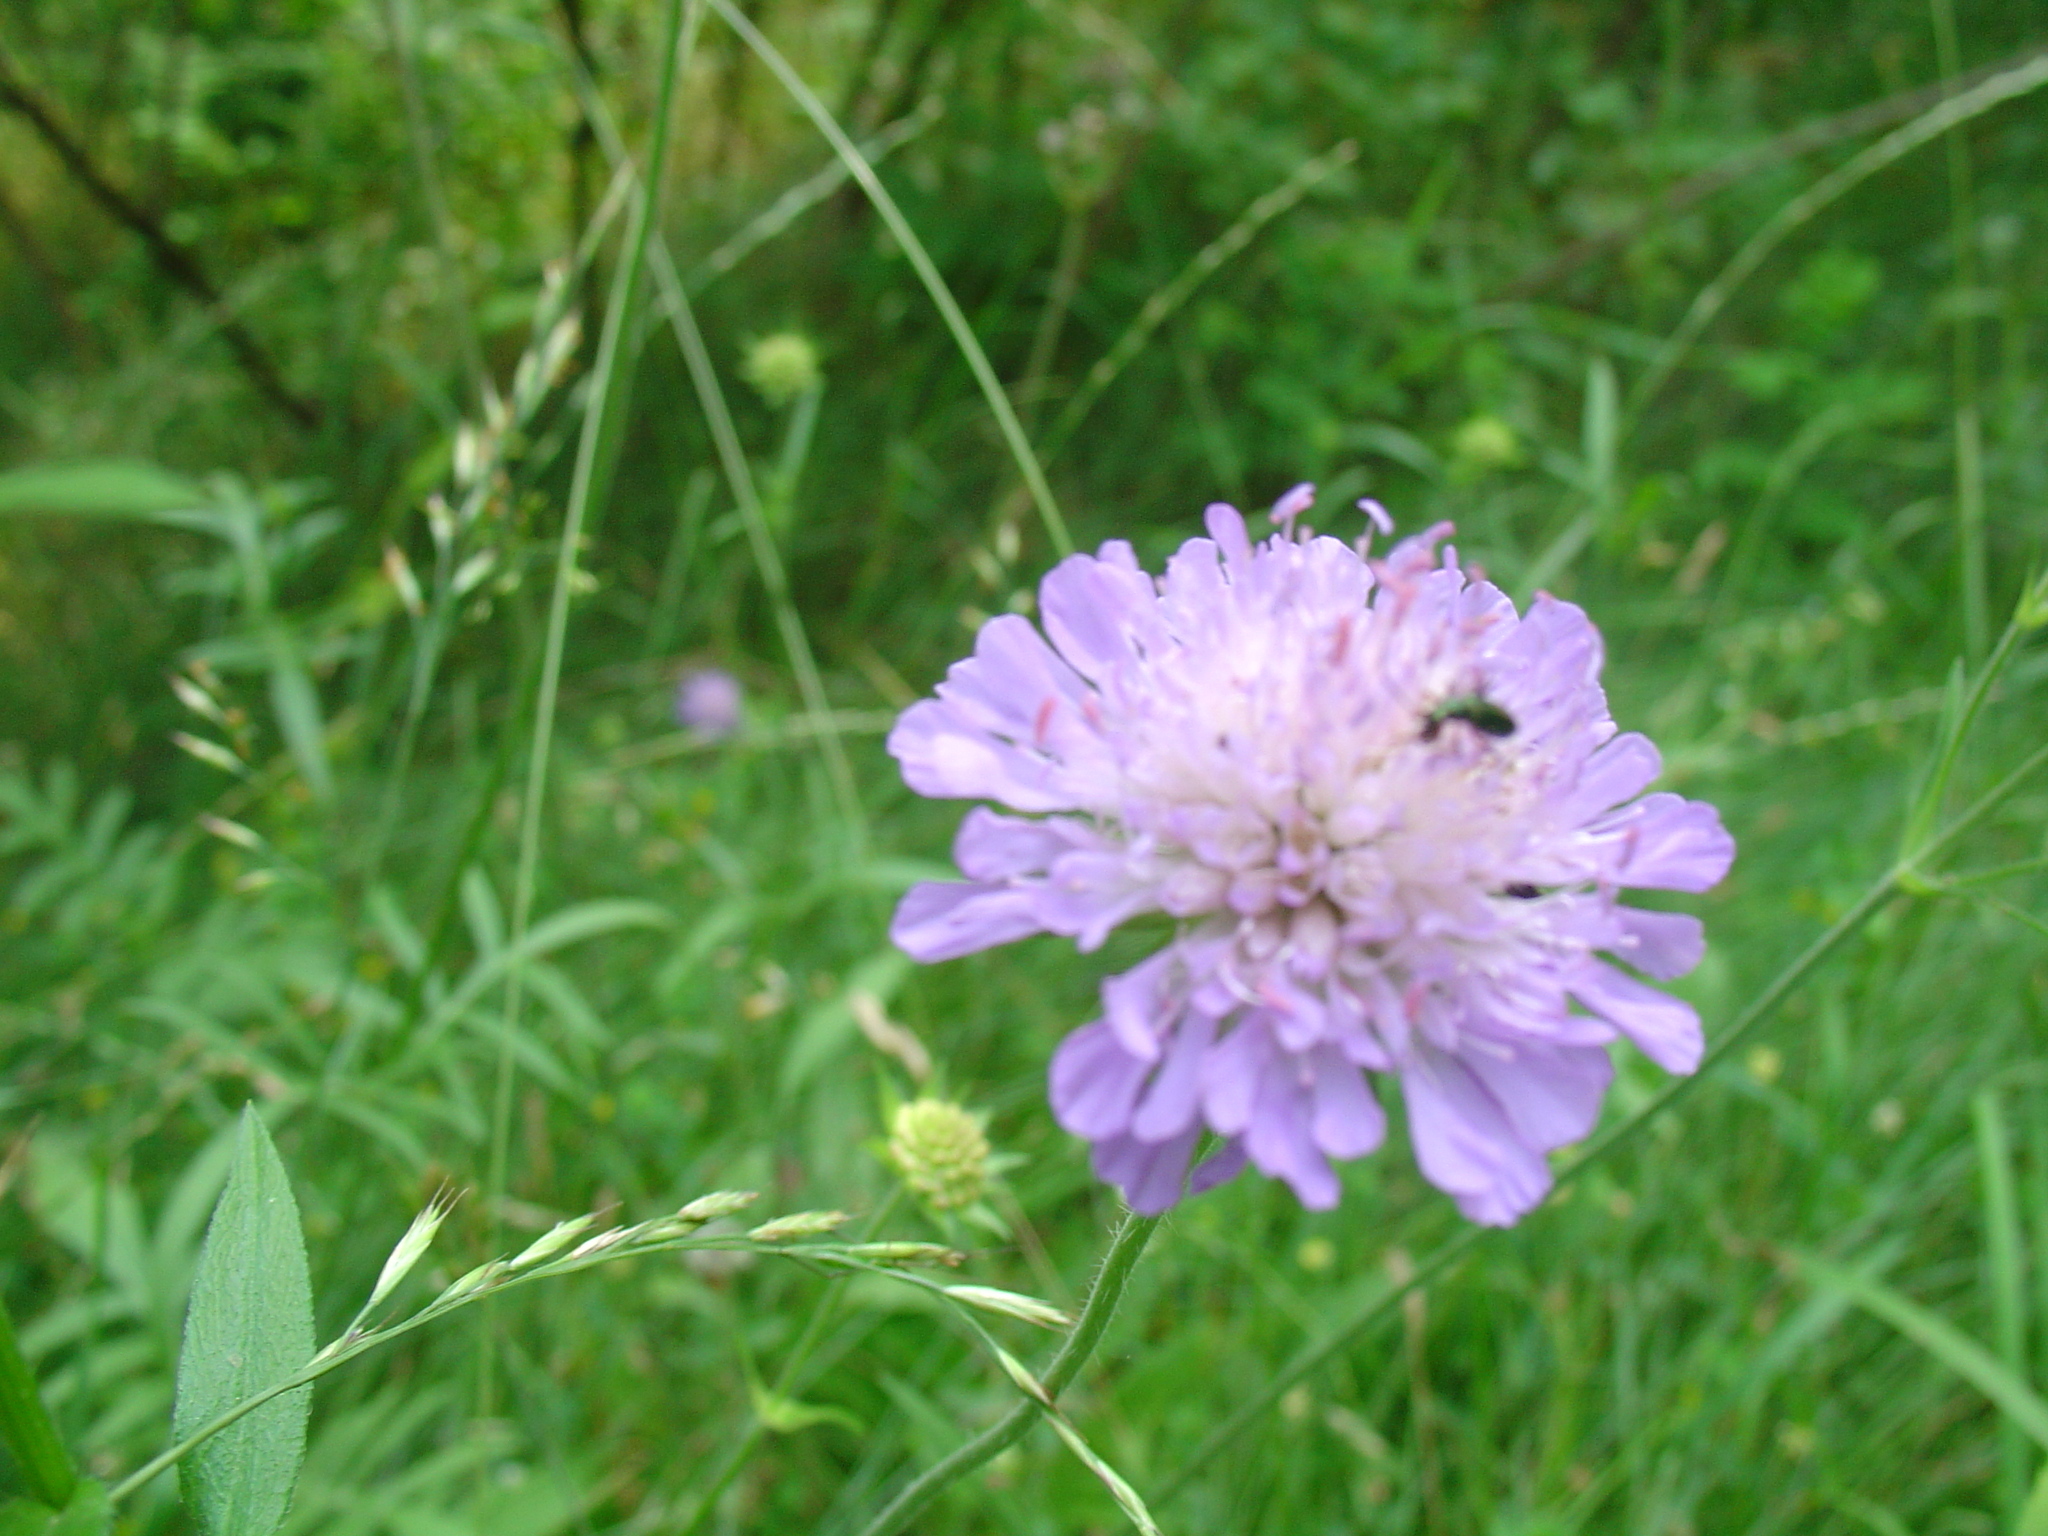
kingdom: Plantae
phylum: Tracheophyta
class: Magnoliopsida
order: Dipsacales
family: Caprifoliaceae
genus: Knautia
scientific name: Knautia arvensis
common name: Field scabiosa
